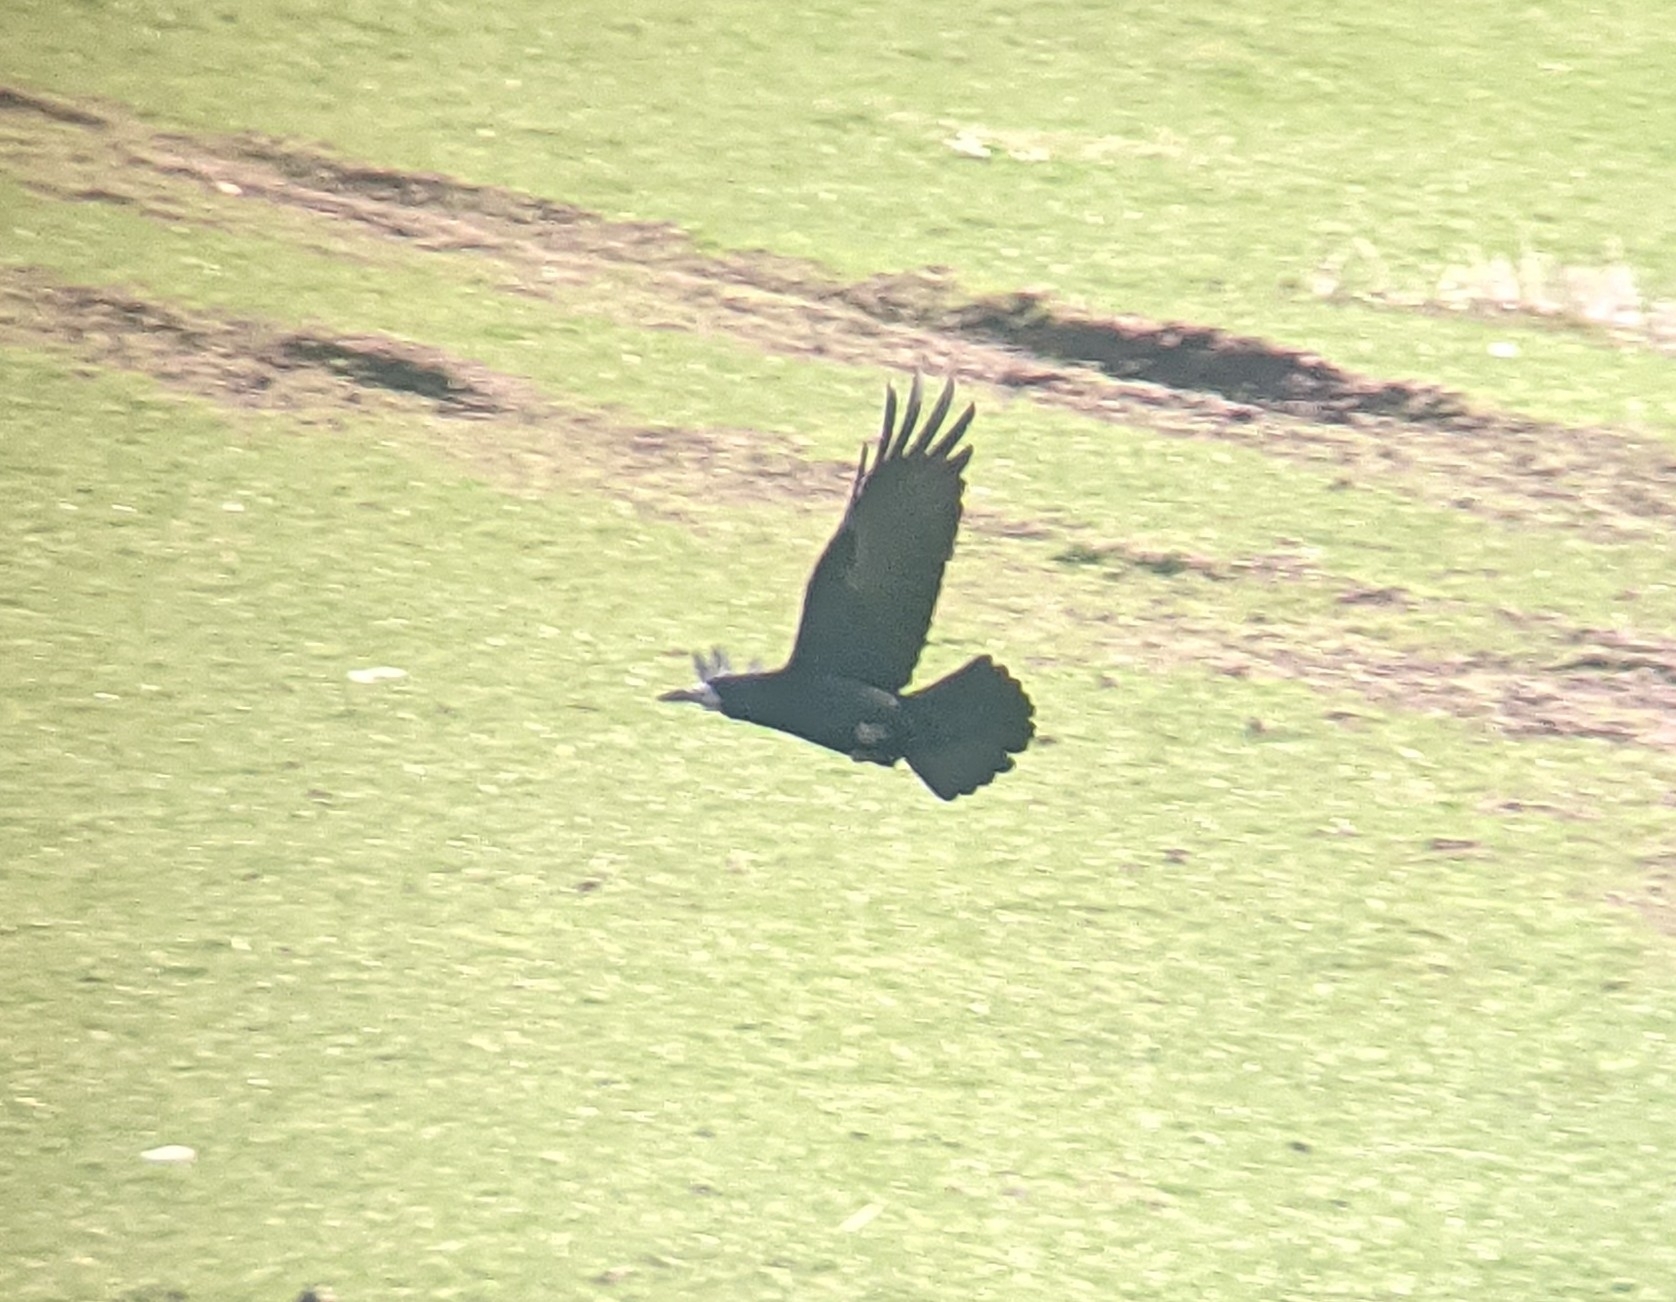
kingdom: Animalia
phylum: Chordata
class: Aves
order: Passeriformes
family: Corvidae
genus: Corvus
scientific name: Corvus frugilegus
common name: Rook
